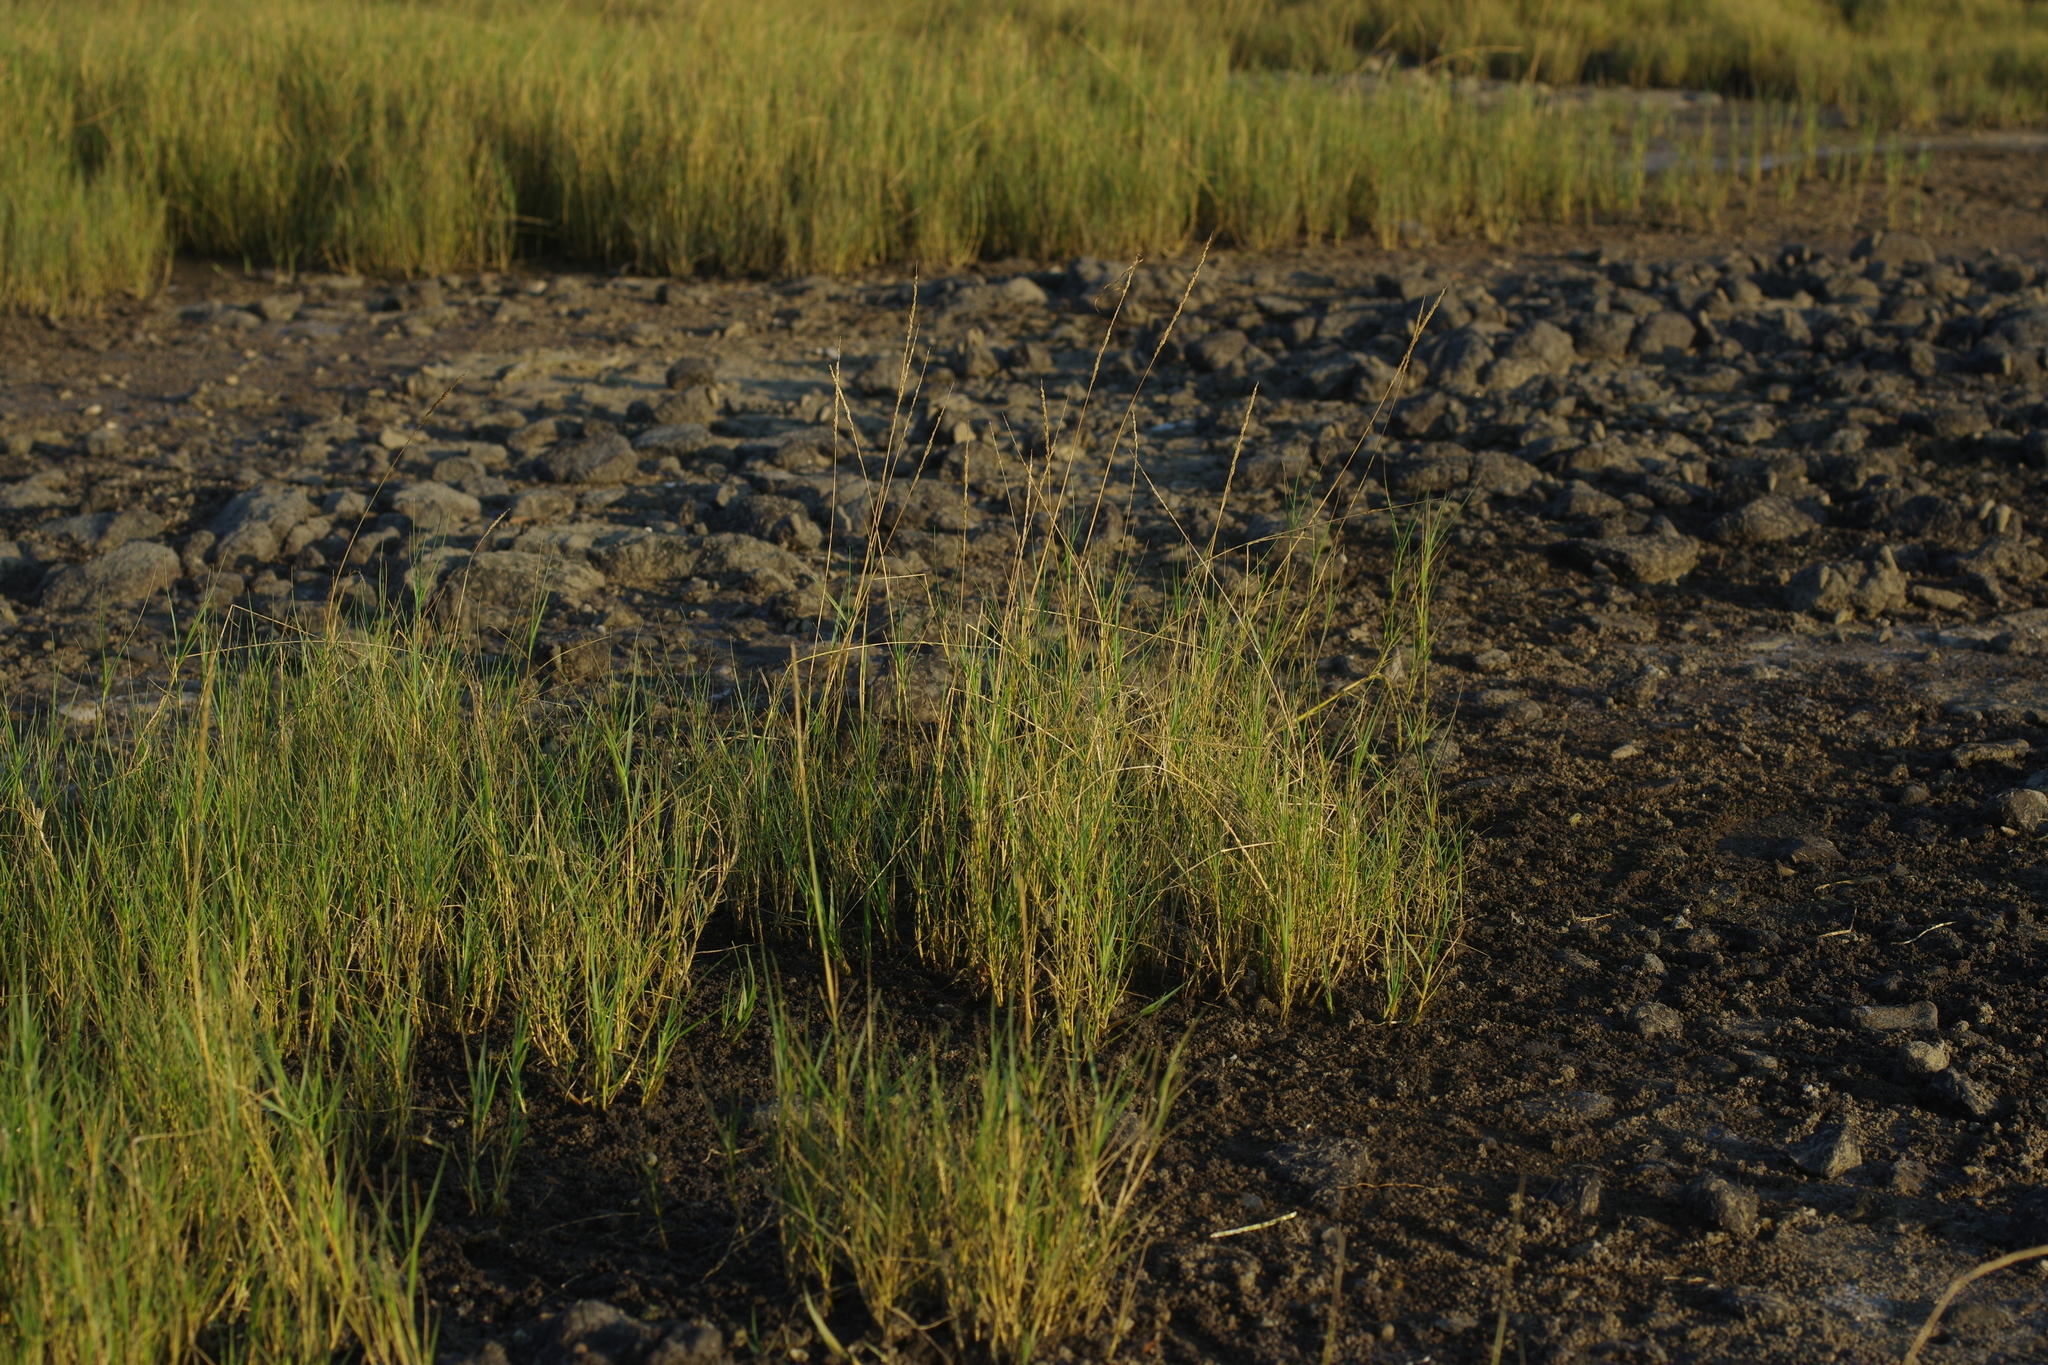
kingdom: Plantae
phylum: Tracheophyta
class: Liliopsida
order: Poales
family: Poaceae
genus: Sporobolus
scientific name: Sporobolus virginicus
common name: Beach dropseed
